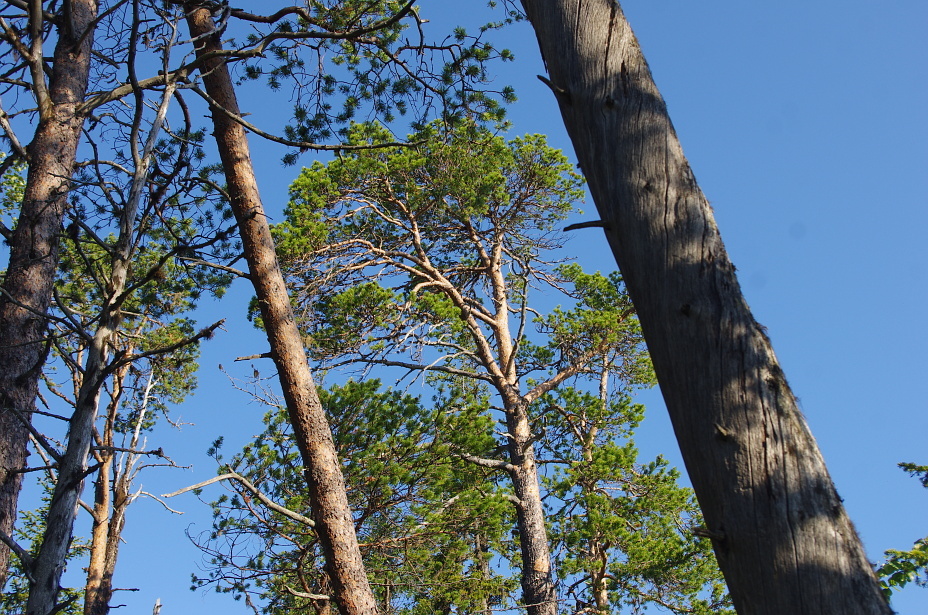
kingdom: Plantae
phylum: Tracheophyta
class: Pinopsida
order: Pinales
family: Pinaceae
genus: Pinus
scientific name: Pinus sylvestris
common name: Scots pine
